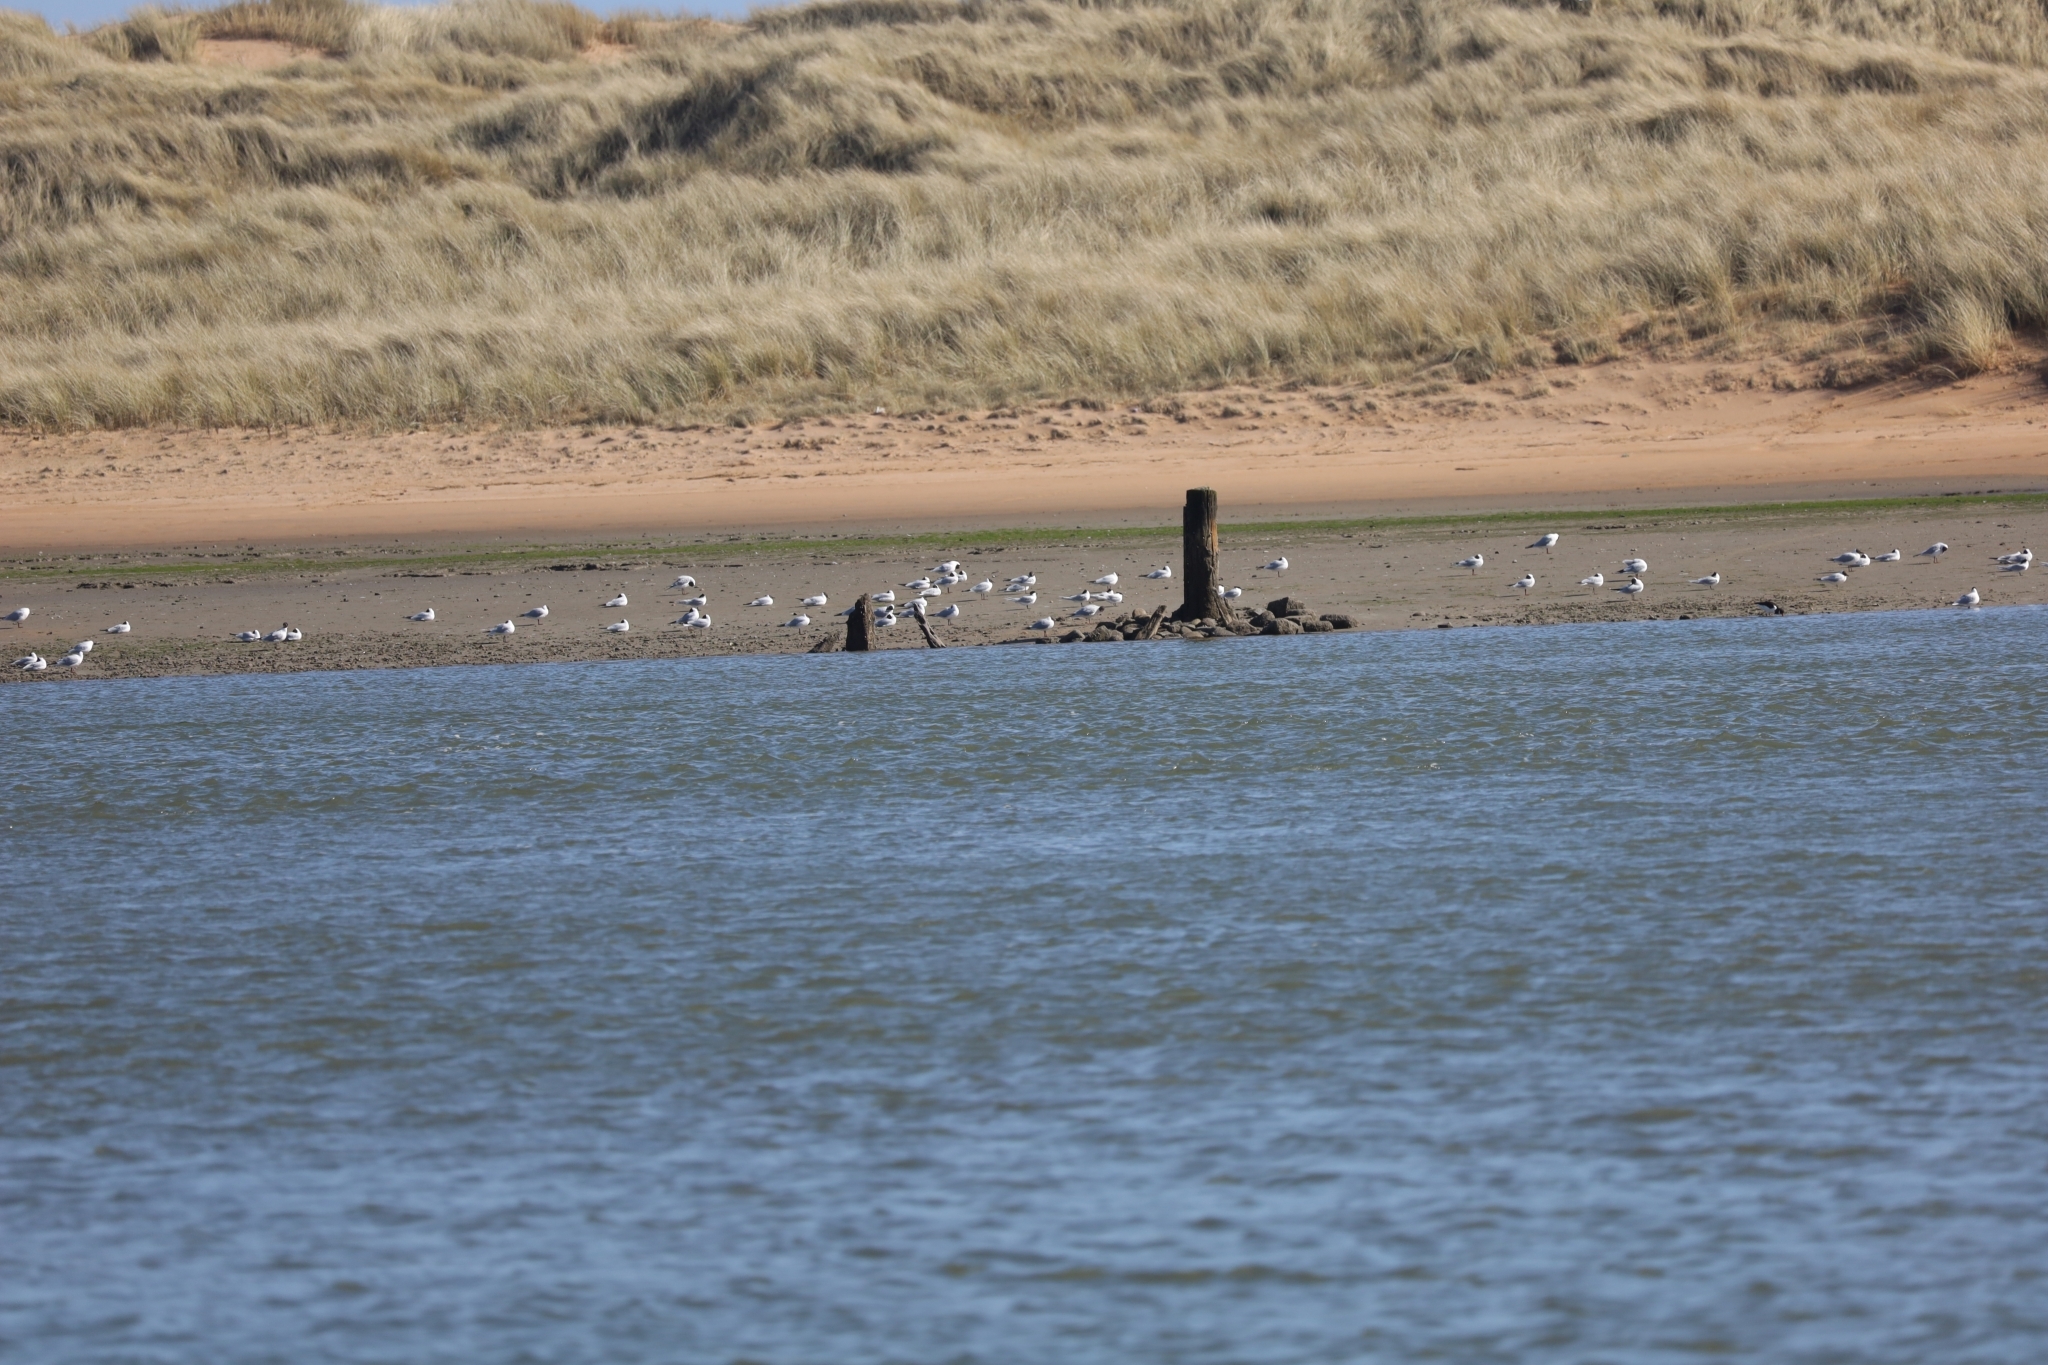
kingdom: Animalia
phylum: Chordata
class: Aves
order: Charadriiformes
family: Laridae
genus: Chroicocephalus
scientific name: Chroicocephalus ridibundus
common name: Black-headed gull
